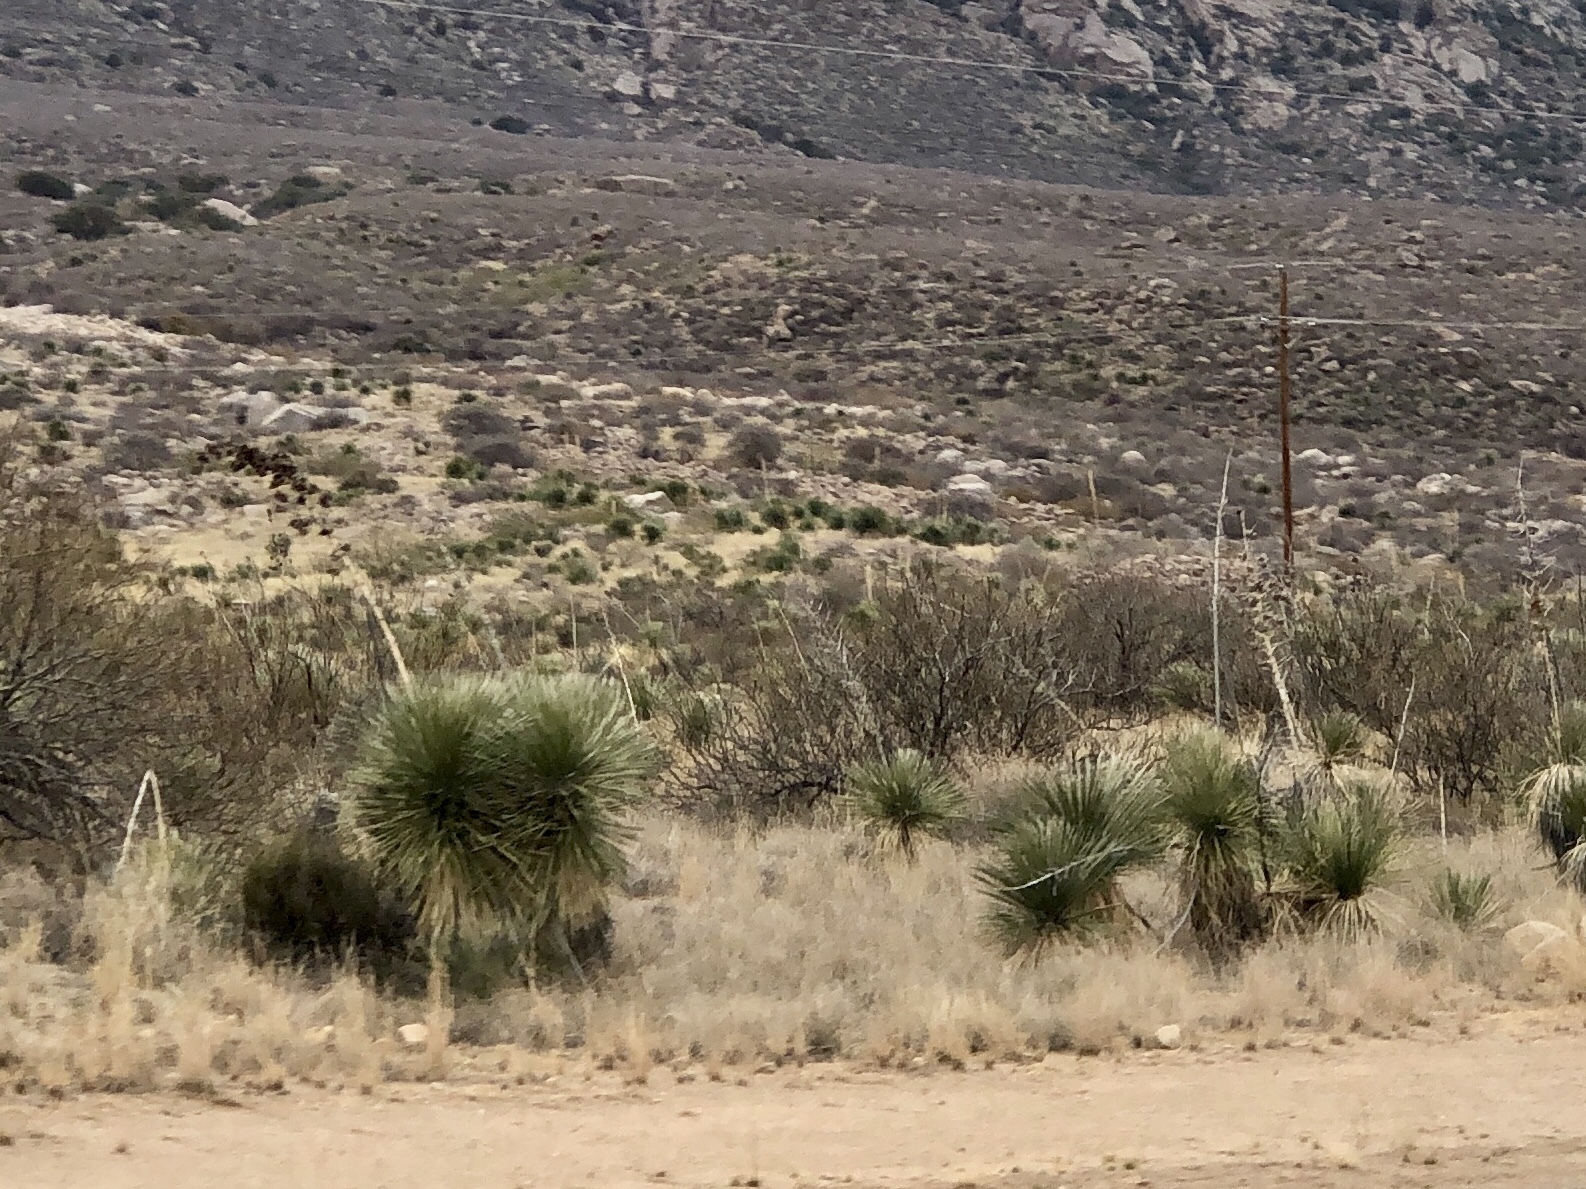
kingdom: Plantae
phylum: Tracheophyta
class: Liliopsida
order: Asparagales
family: Asparagaceae
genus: Yucca
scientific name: Yucca elata
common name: Palmella
